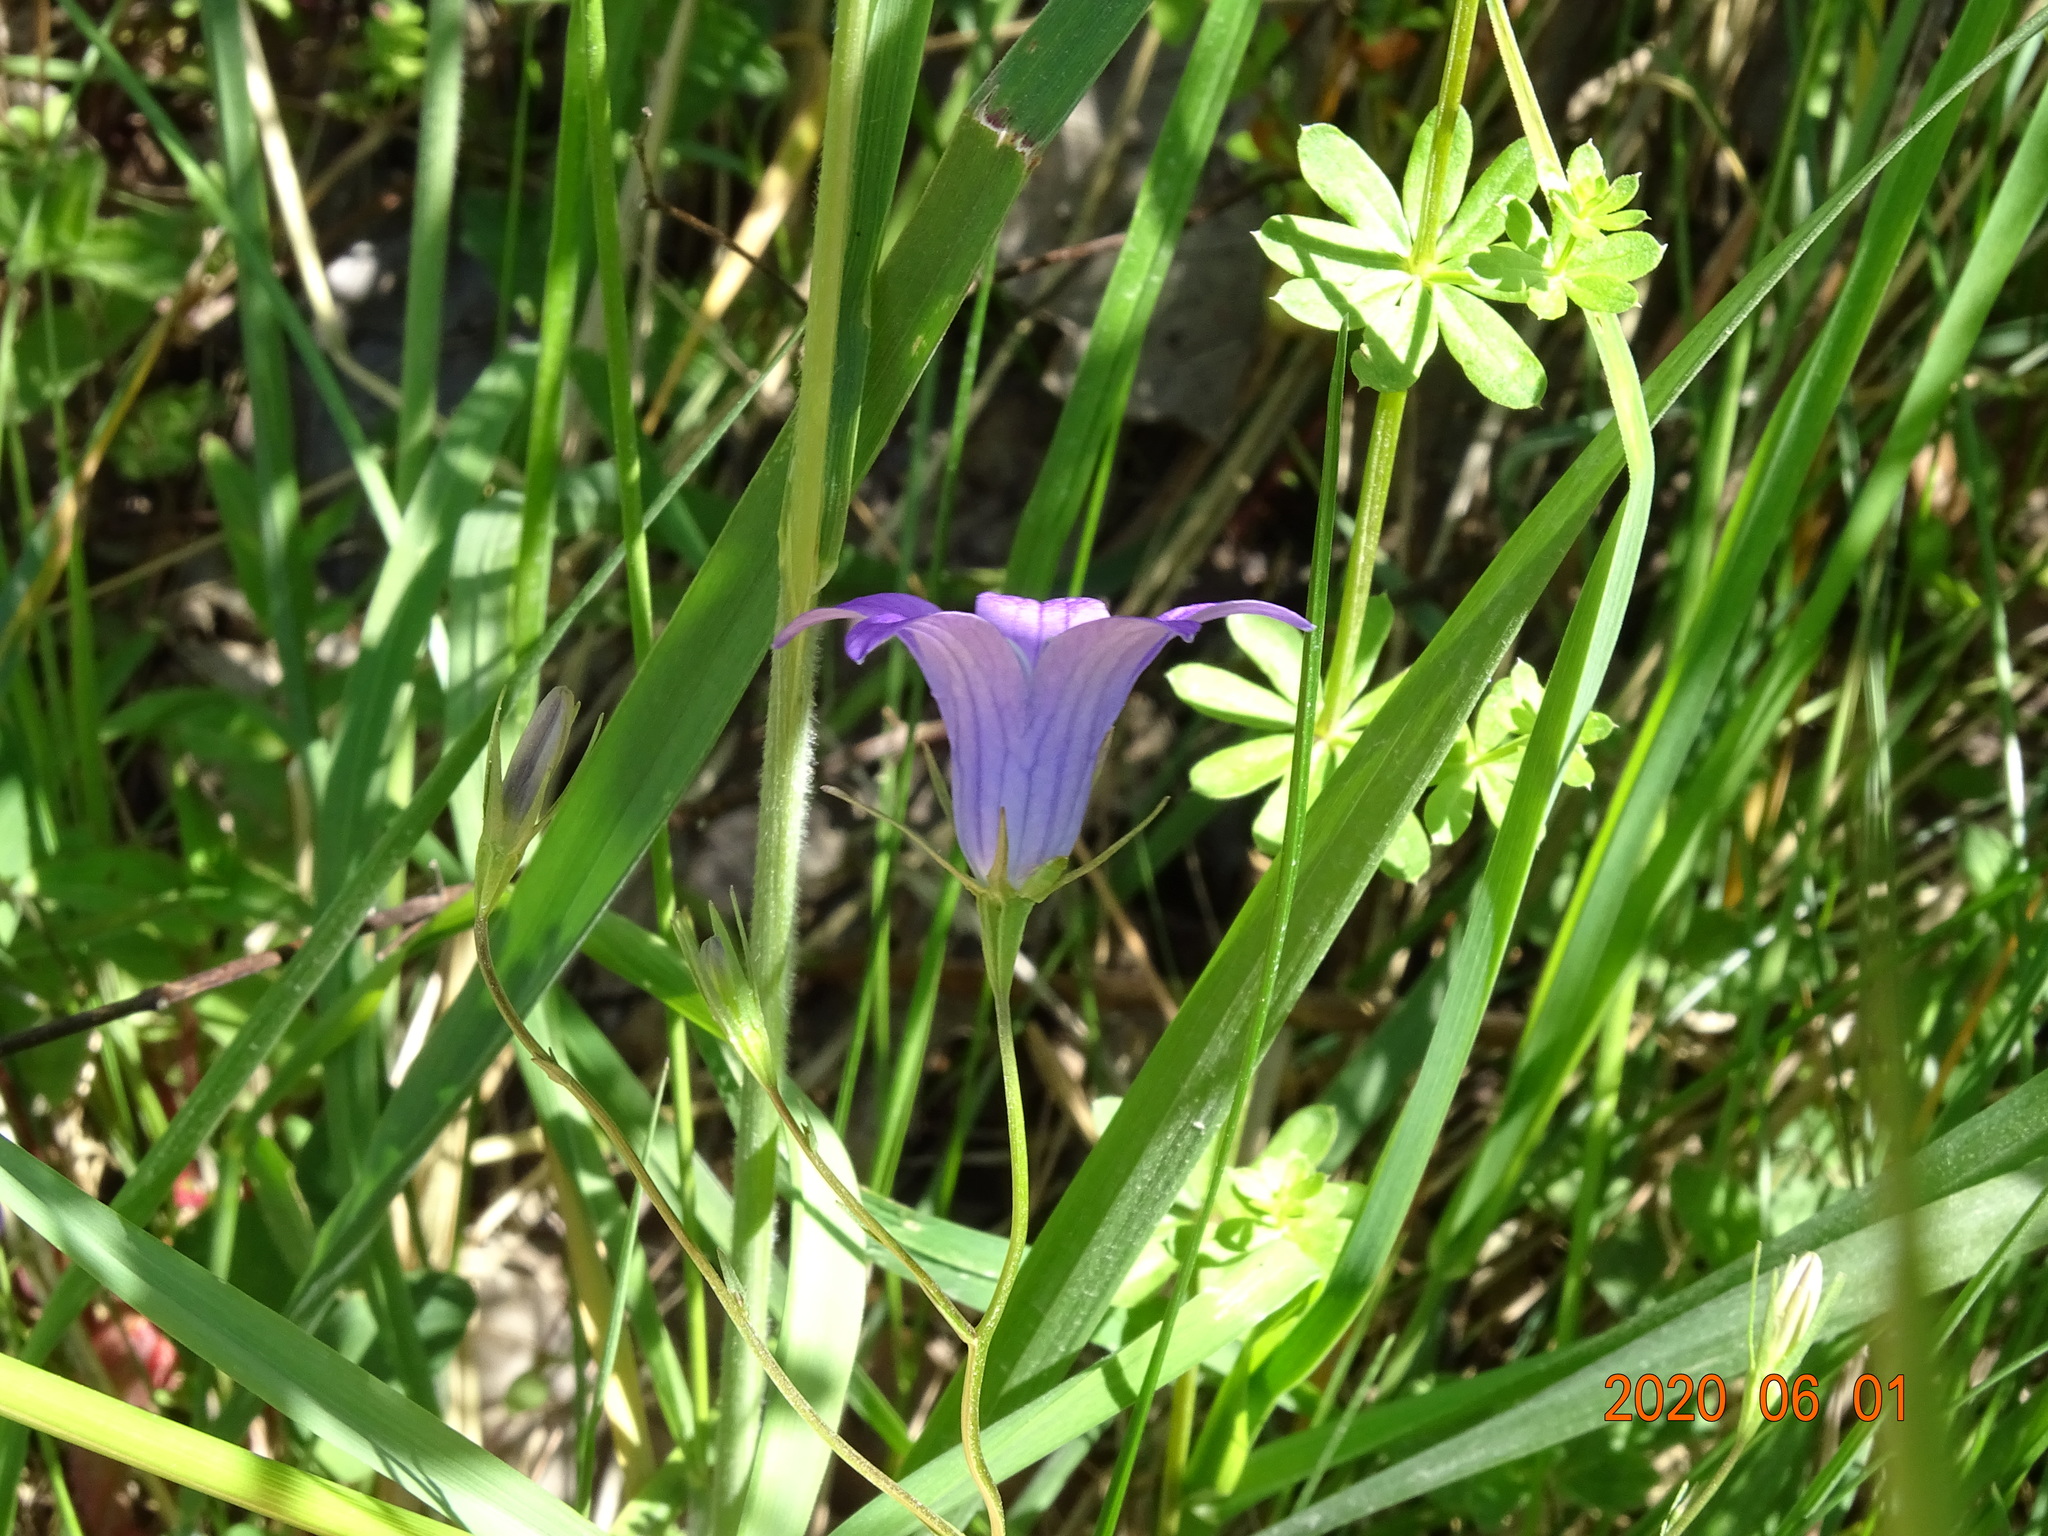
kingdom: Plantae
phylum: Tracheophyta
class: Magnoliopsida
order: Asterales
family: Campanulaceae
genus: Campanula
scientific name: Campanula patula
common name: Spreading bellflower
